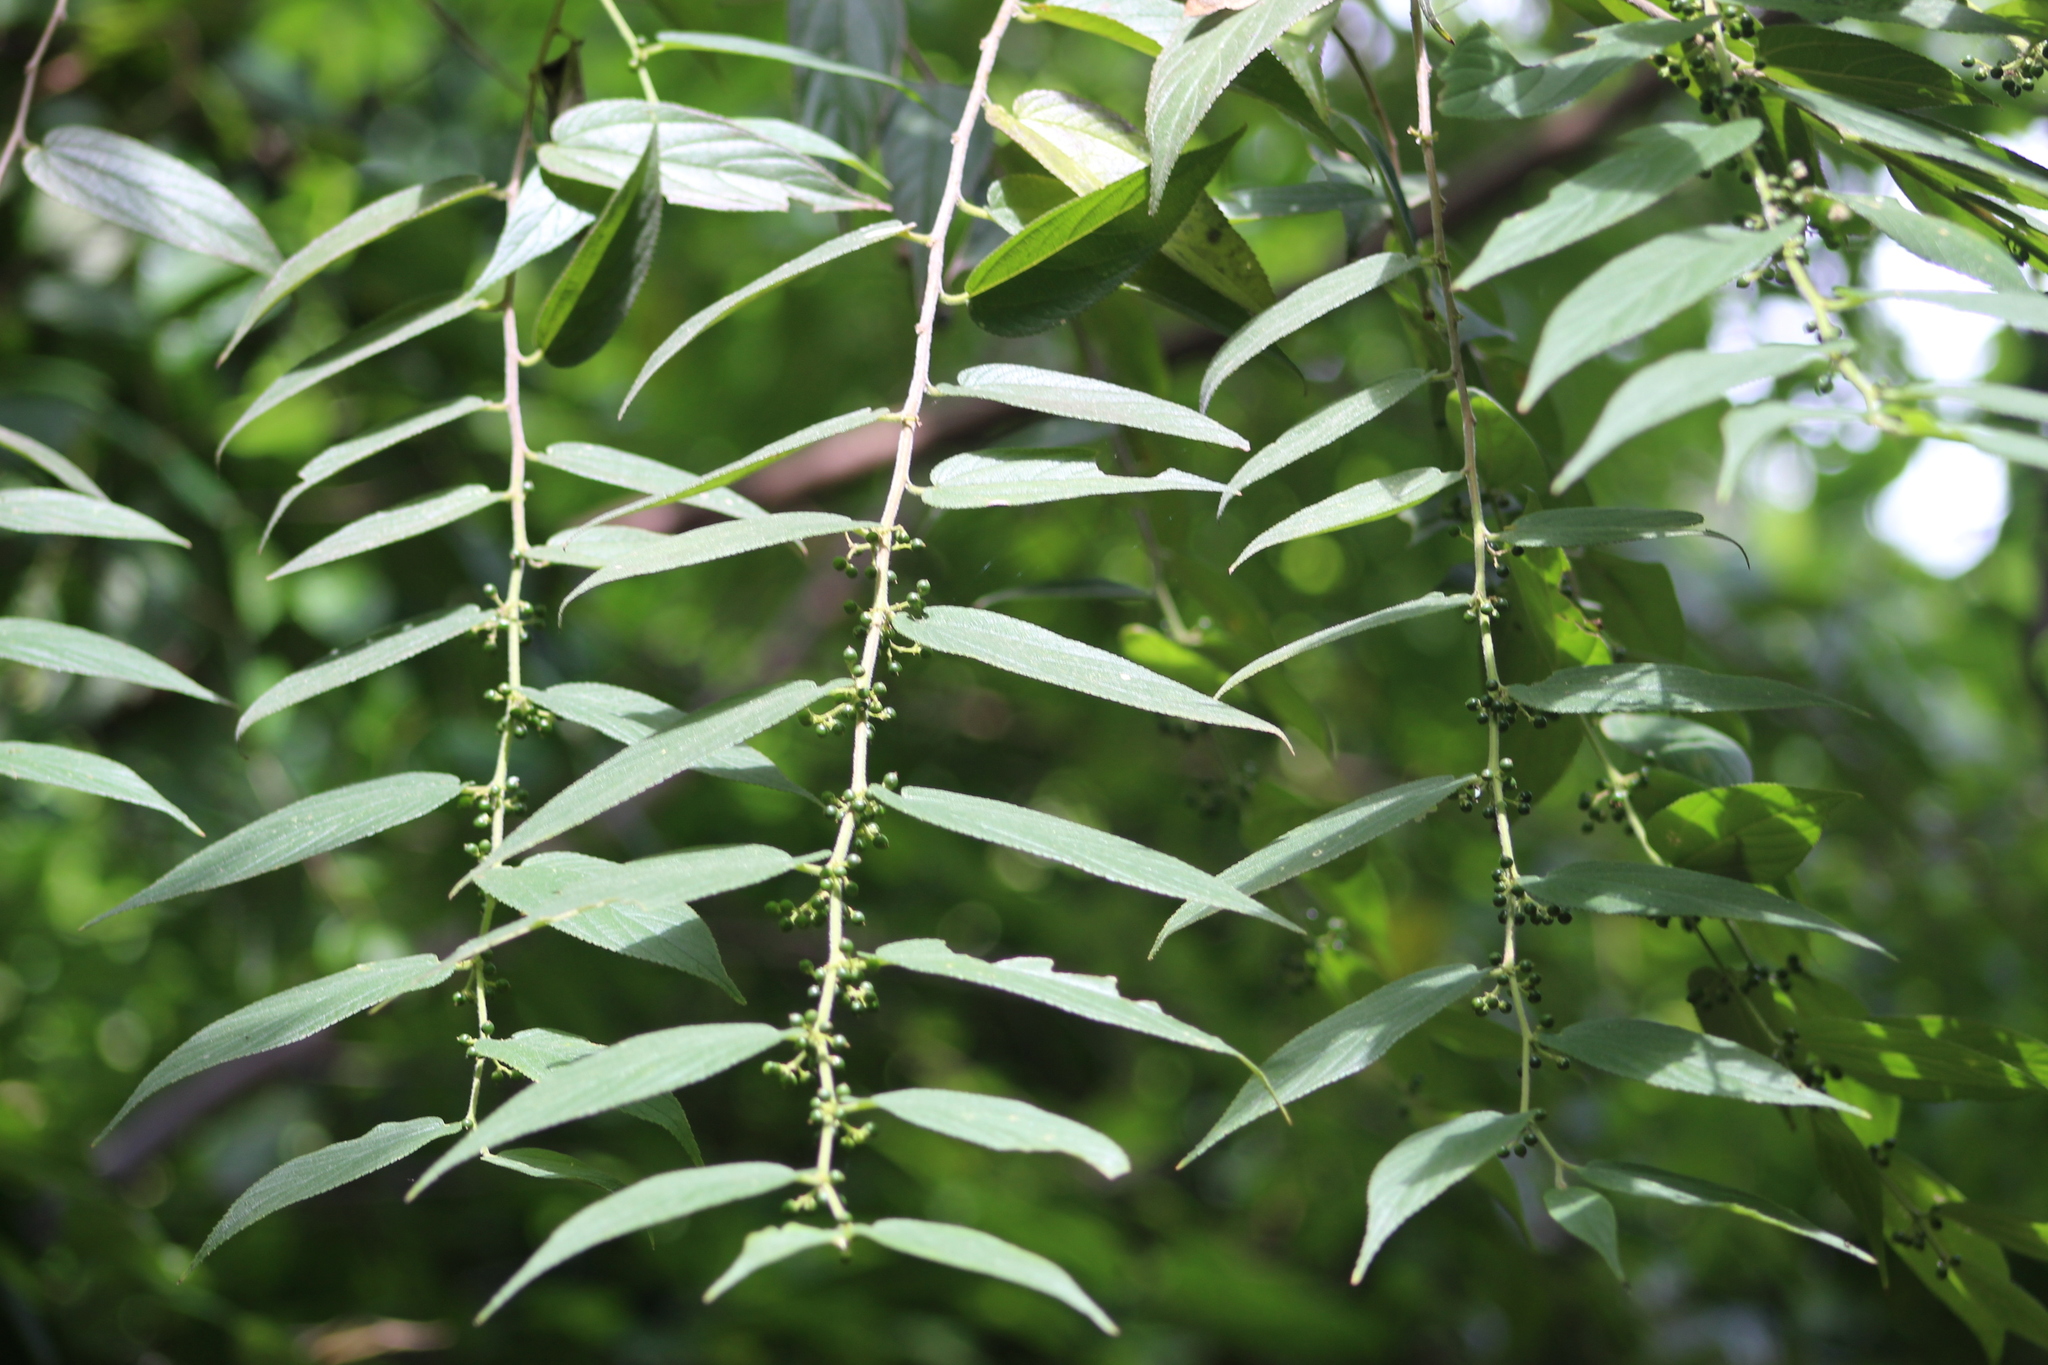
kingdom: Plantae
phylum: Tracheophyta
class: Magnoliopsida
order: Rosales
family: Cannabaceae
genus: Trema
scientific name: Trema micranthum
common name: Jamaican nettletree
